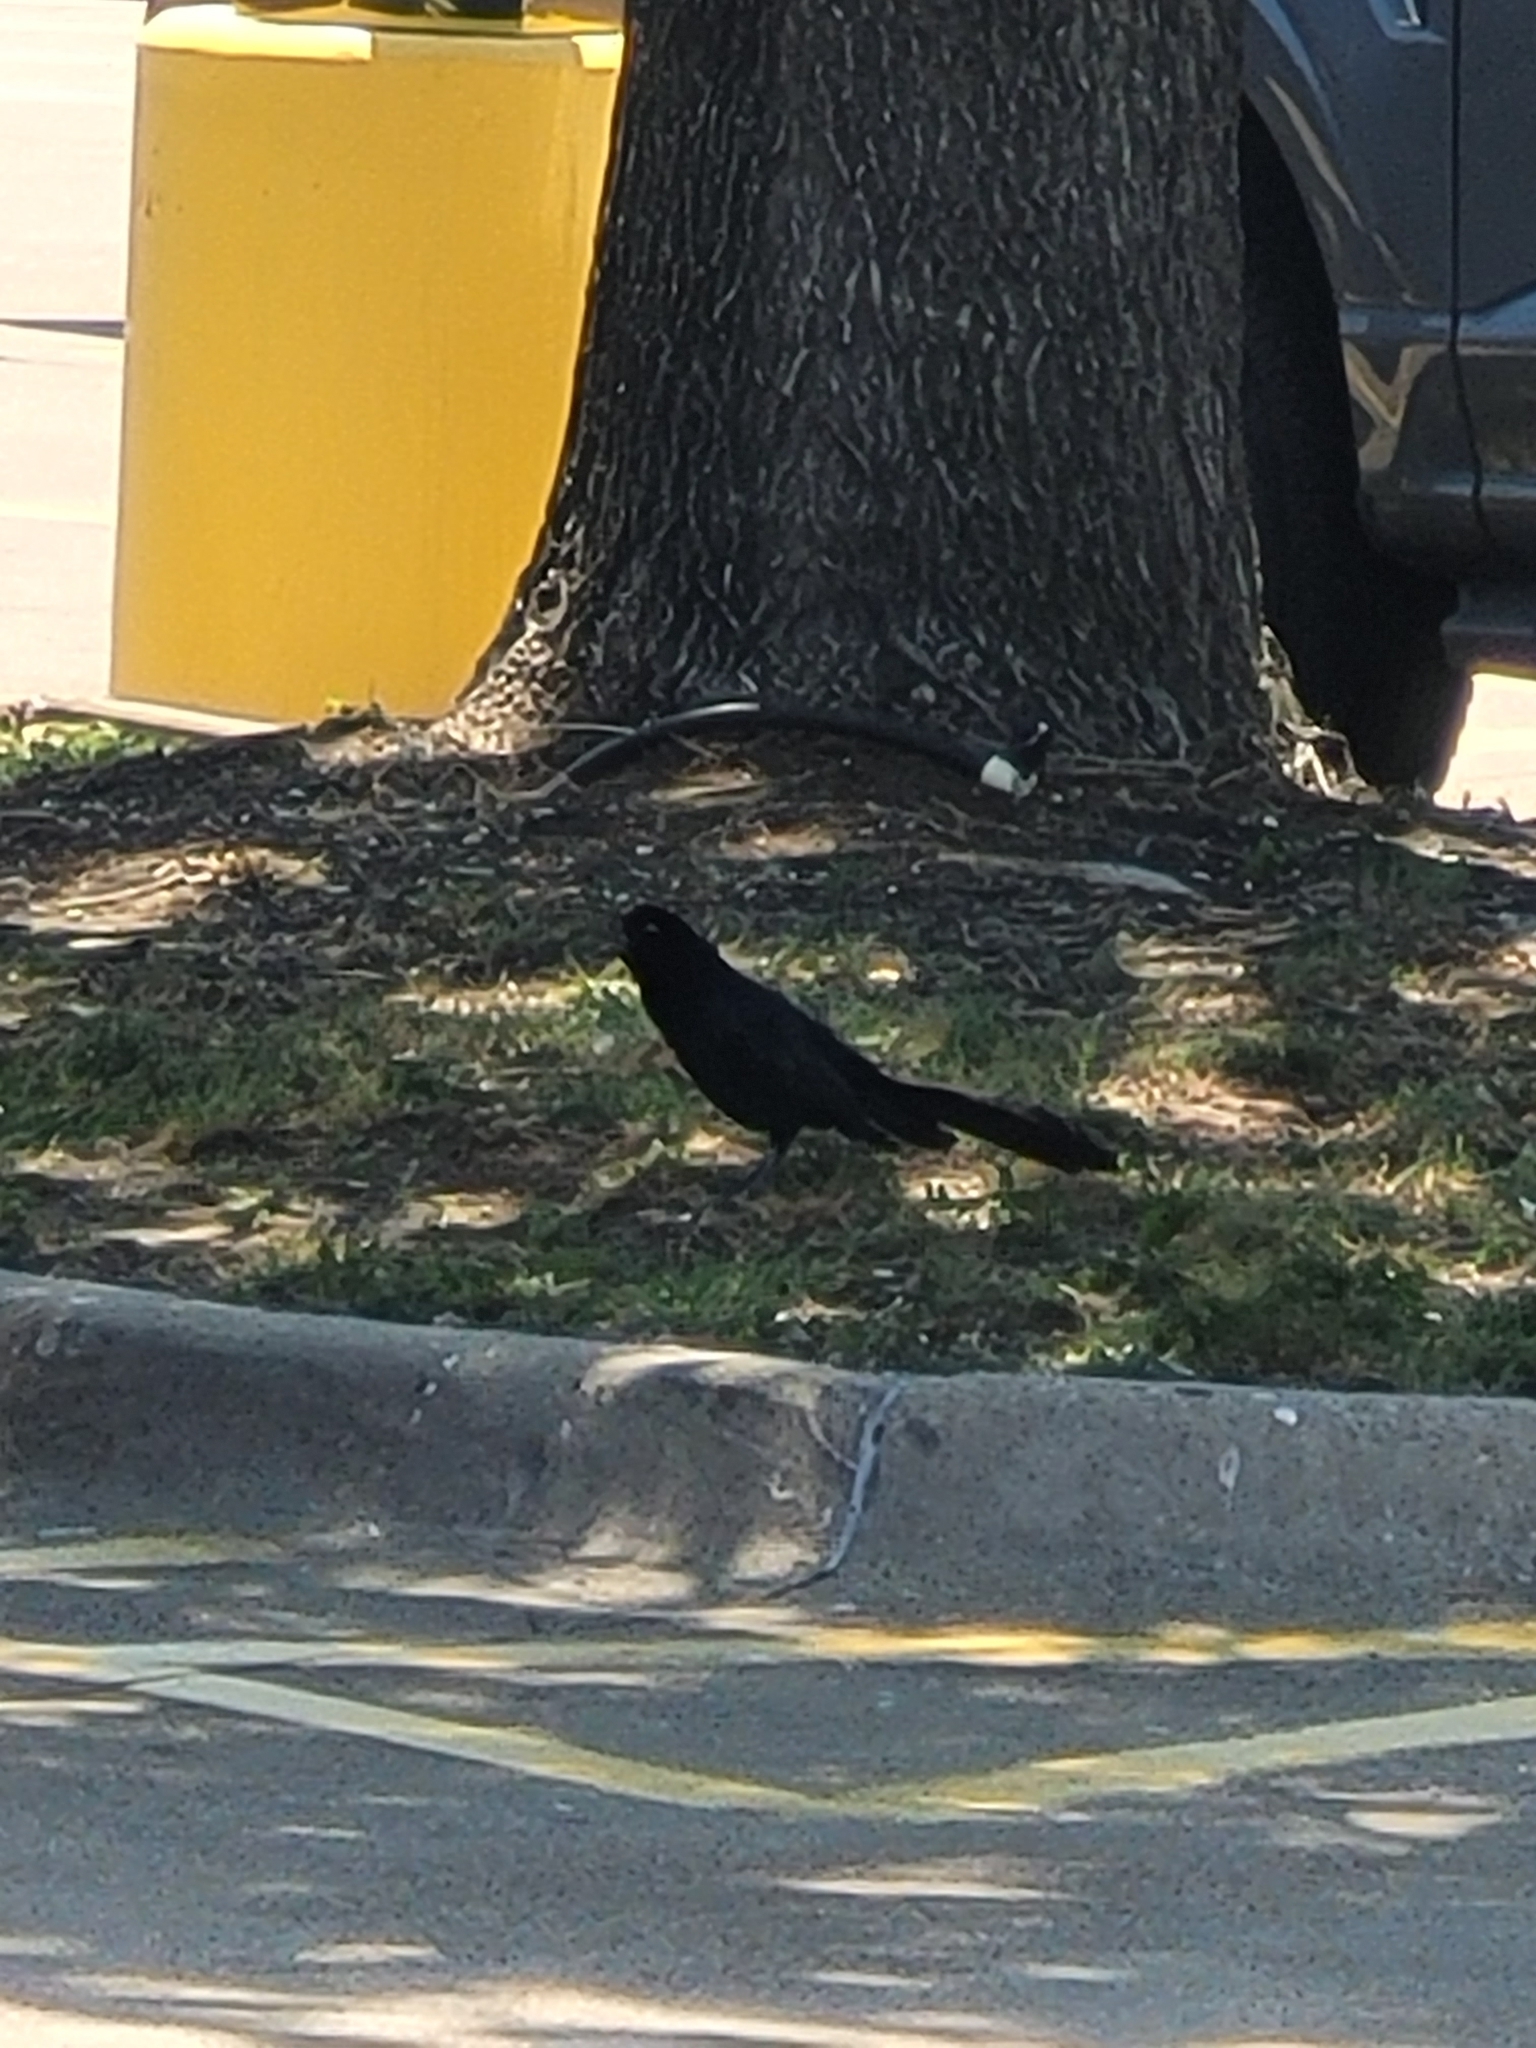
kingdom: Animalia
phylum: Chordata
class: Aves
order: Passeriformes
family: Icteridae
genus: Quiscalus
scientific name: Quiscalus mexicanus
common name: Great-tailed grackle
